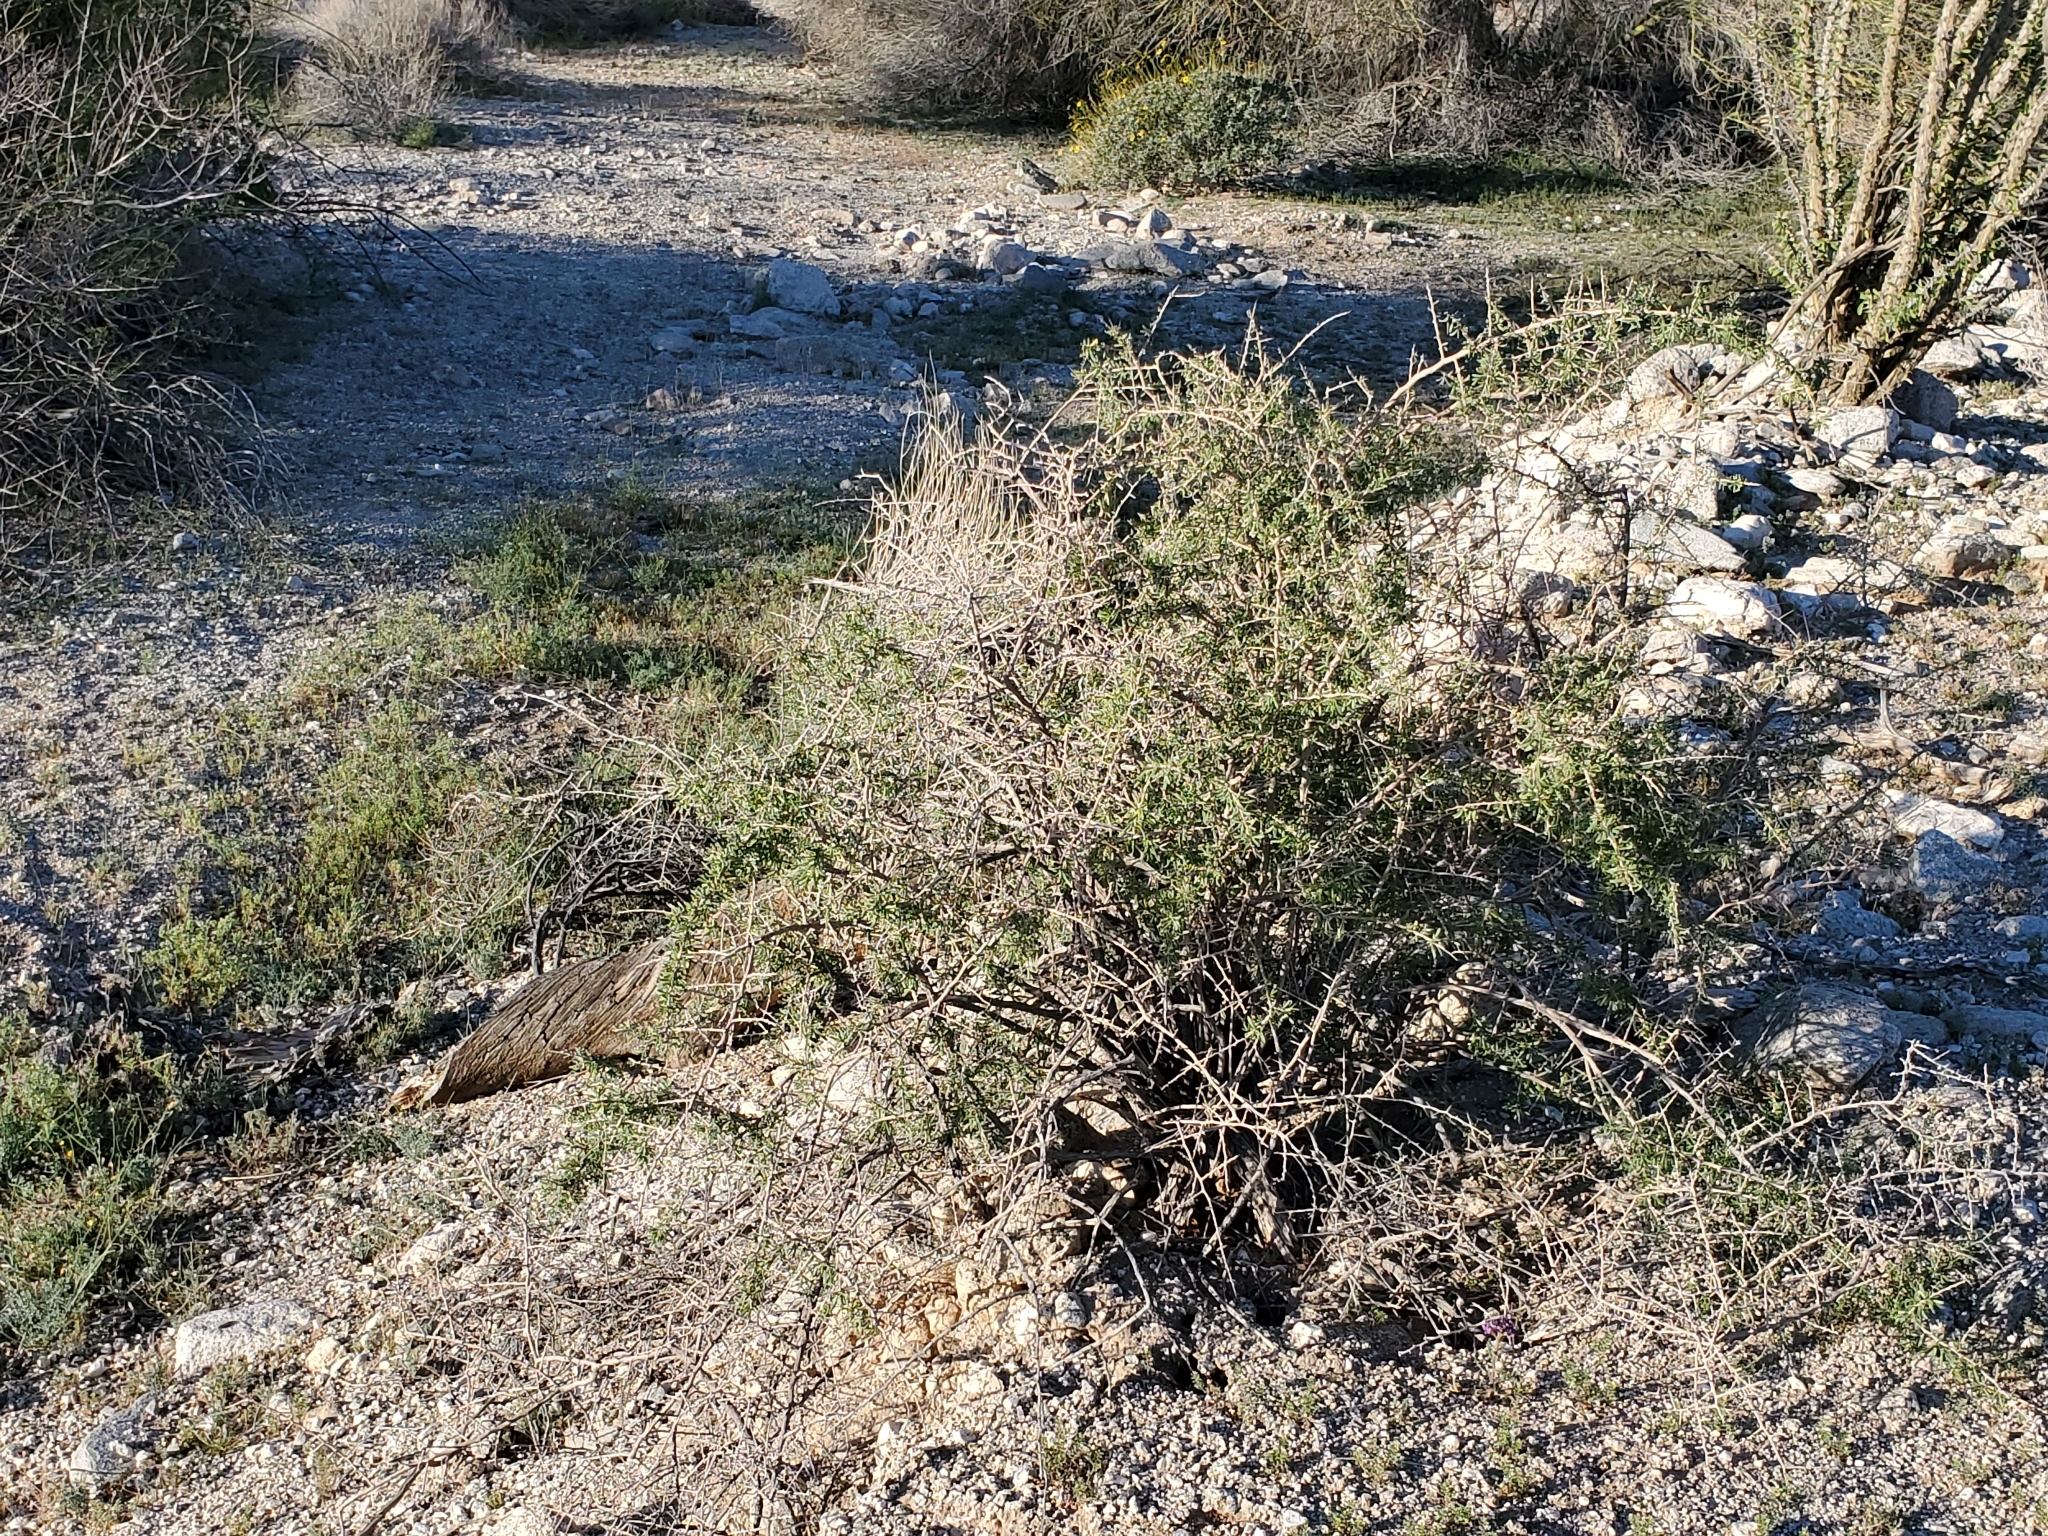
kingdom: Plantae
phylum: Tracheophyta
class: Magnoliopsida
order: Solanales
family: Solanaceae
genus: Lycium
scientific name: Lycium andersonii
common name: Water-jacket
